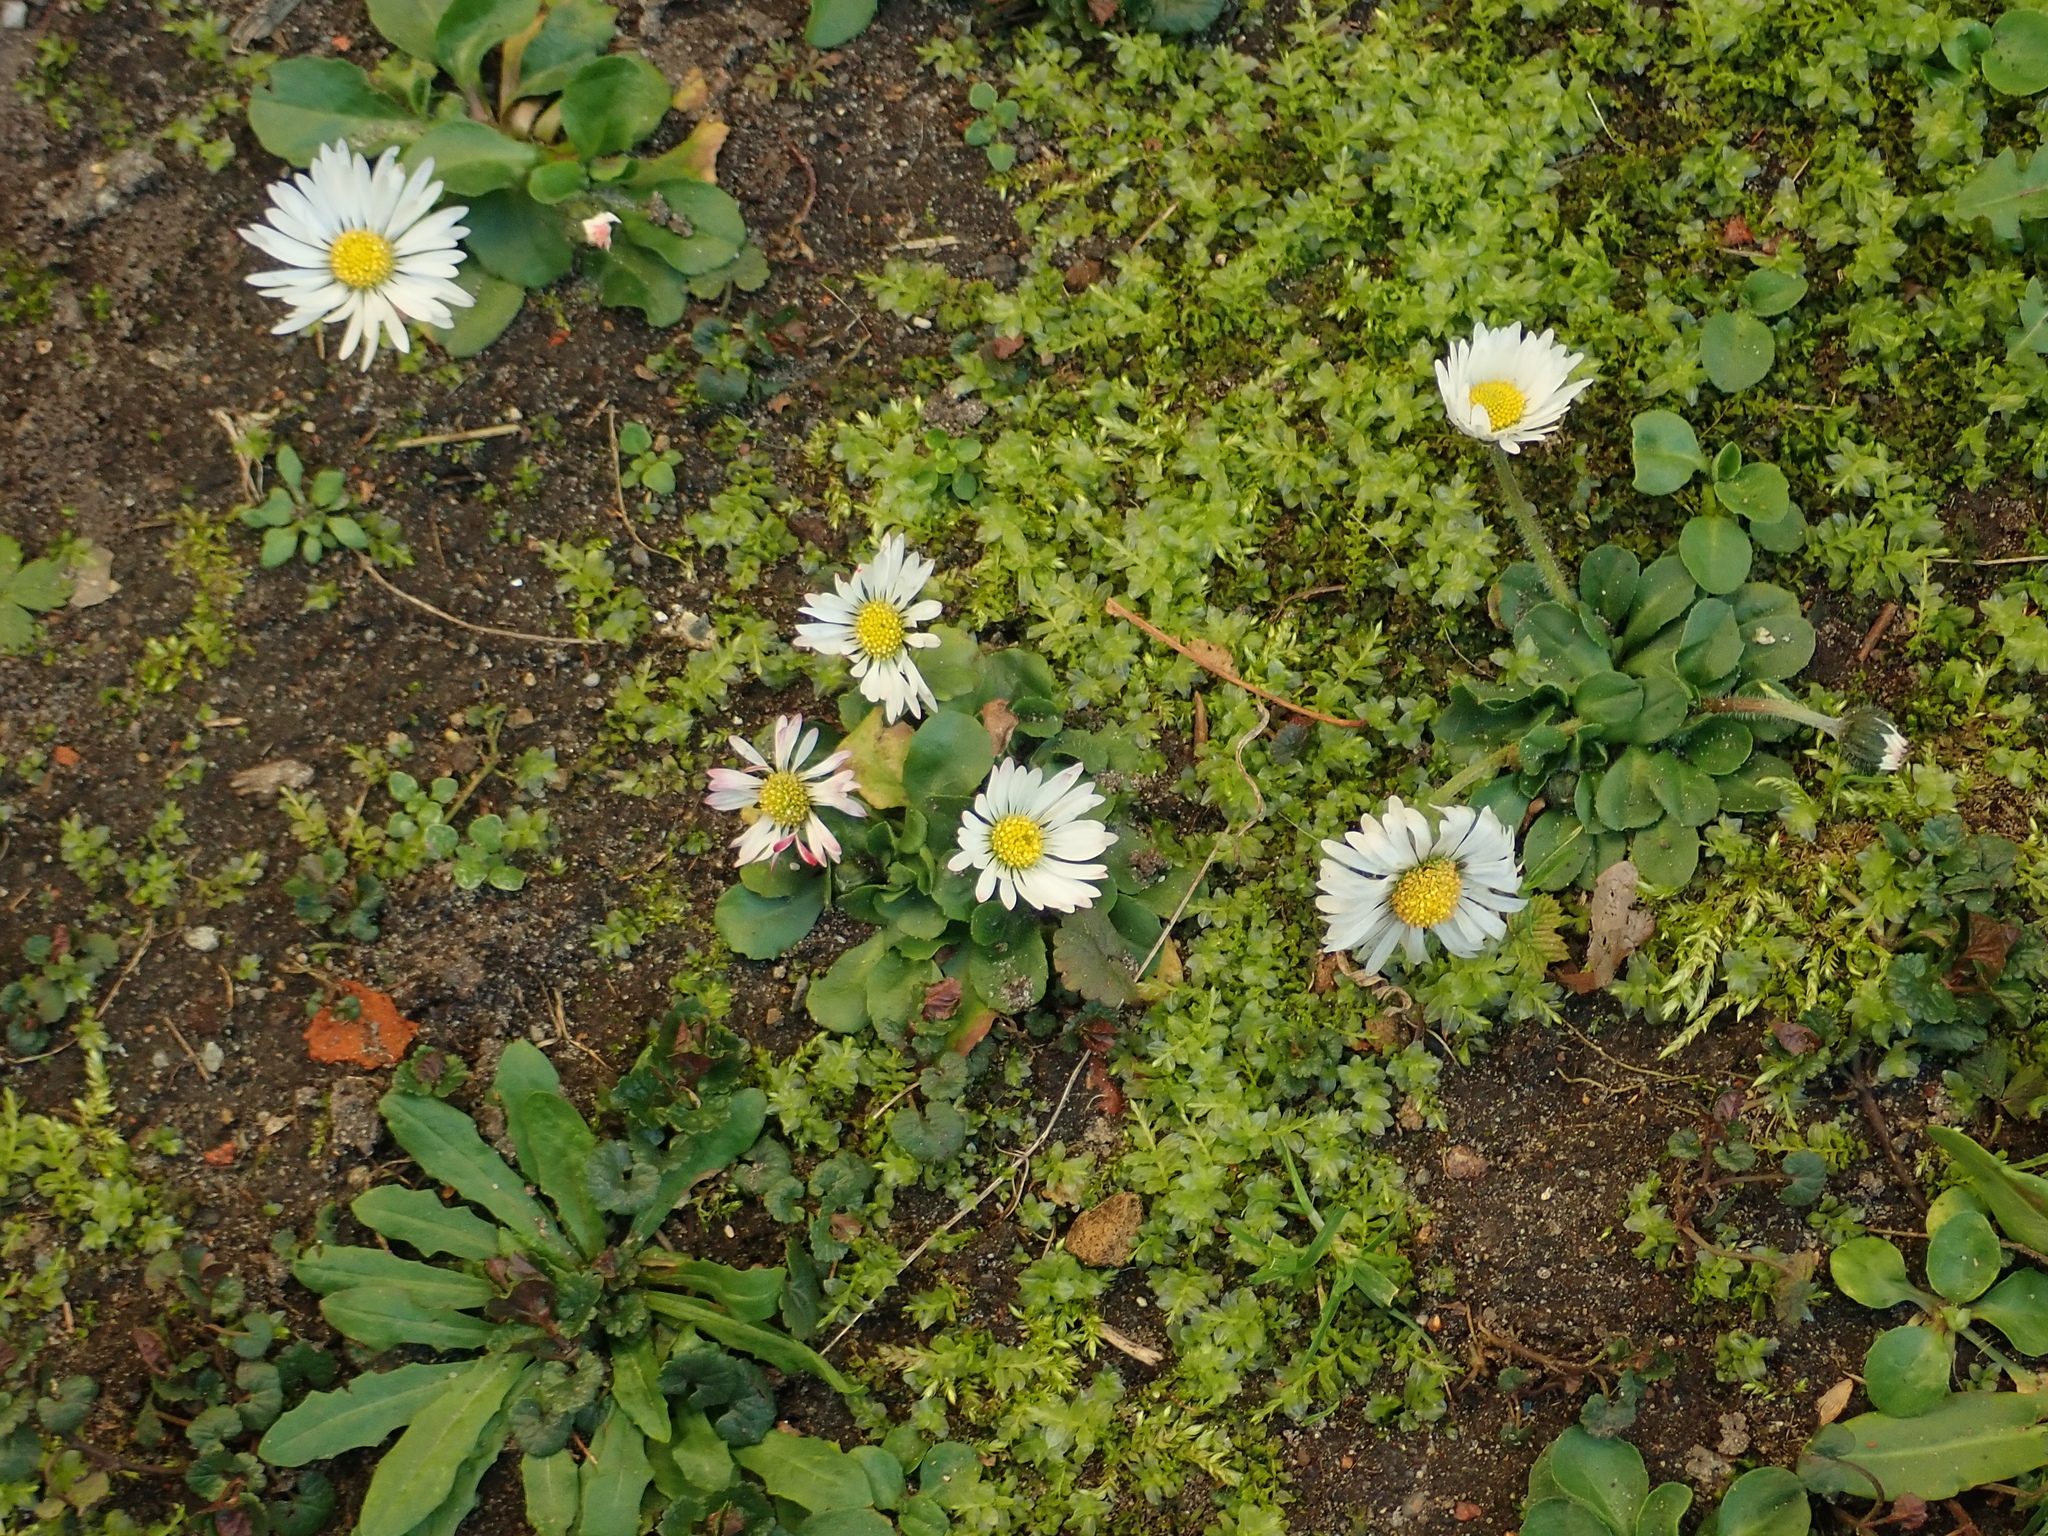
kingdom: Plantae
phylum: Tracheophyta
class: Magnoliopsida
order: Asterales
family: Asteraceae
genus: Bellis
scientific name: Bellis perennis
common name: Lawndaisy
